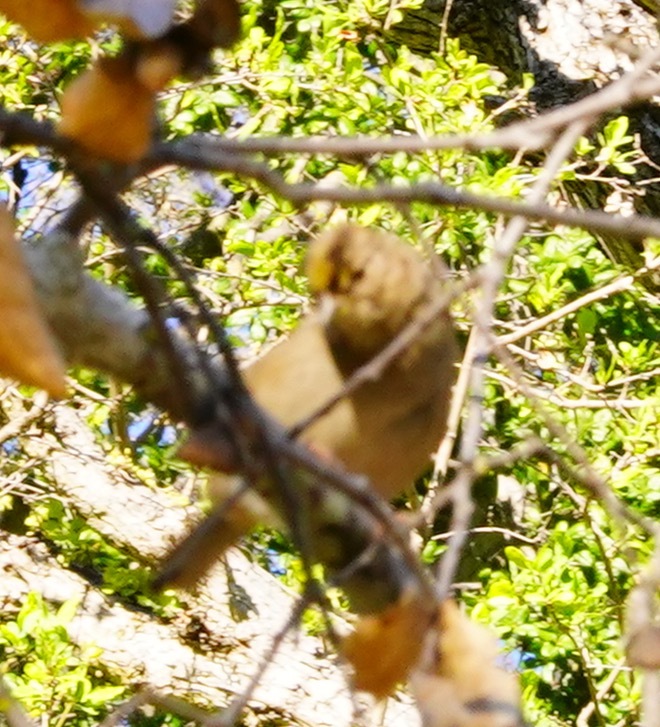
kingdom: Animalia
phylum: Chordata
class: Aves
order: Passeriformes
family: Passerellidae
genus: Zonotrichia
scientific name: Zonotrichia atricapilla
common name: Golden-crowned sparrow
